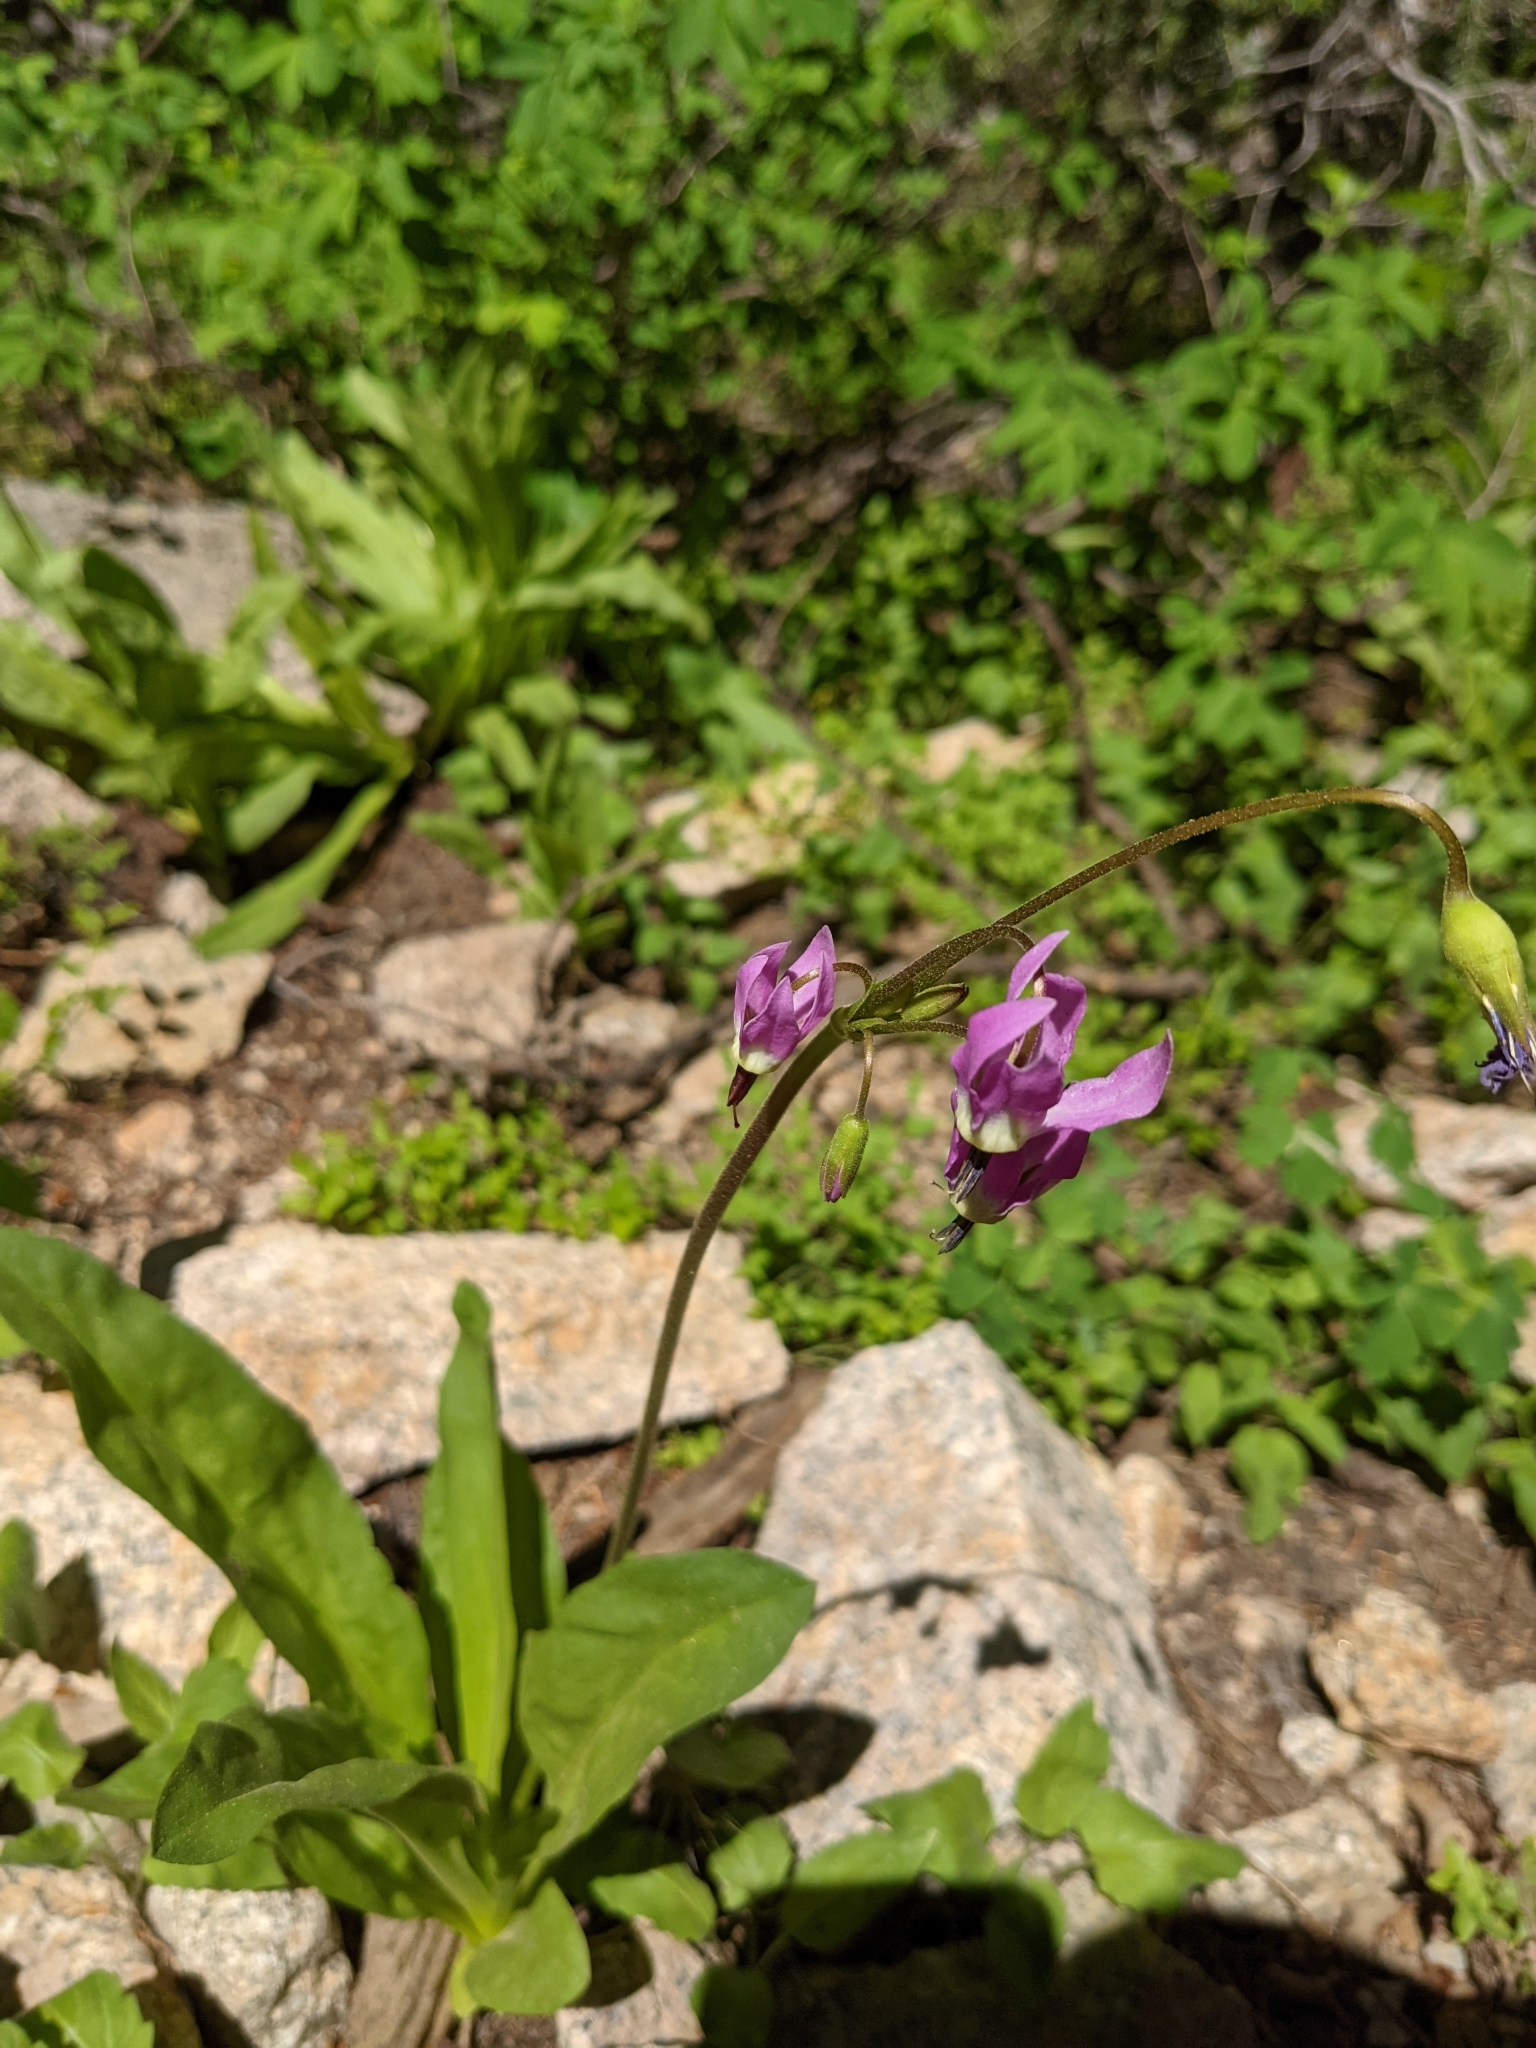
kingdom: Plantae
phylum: Tracheophyta
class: Magnoliopsida
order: Ericales
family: Primulaceae
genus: Dodecatheon
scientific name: Dodecatheon jeffreyanum
